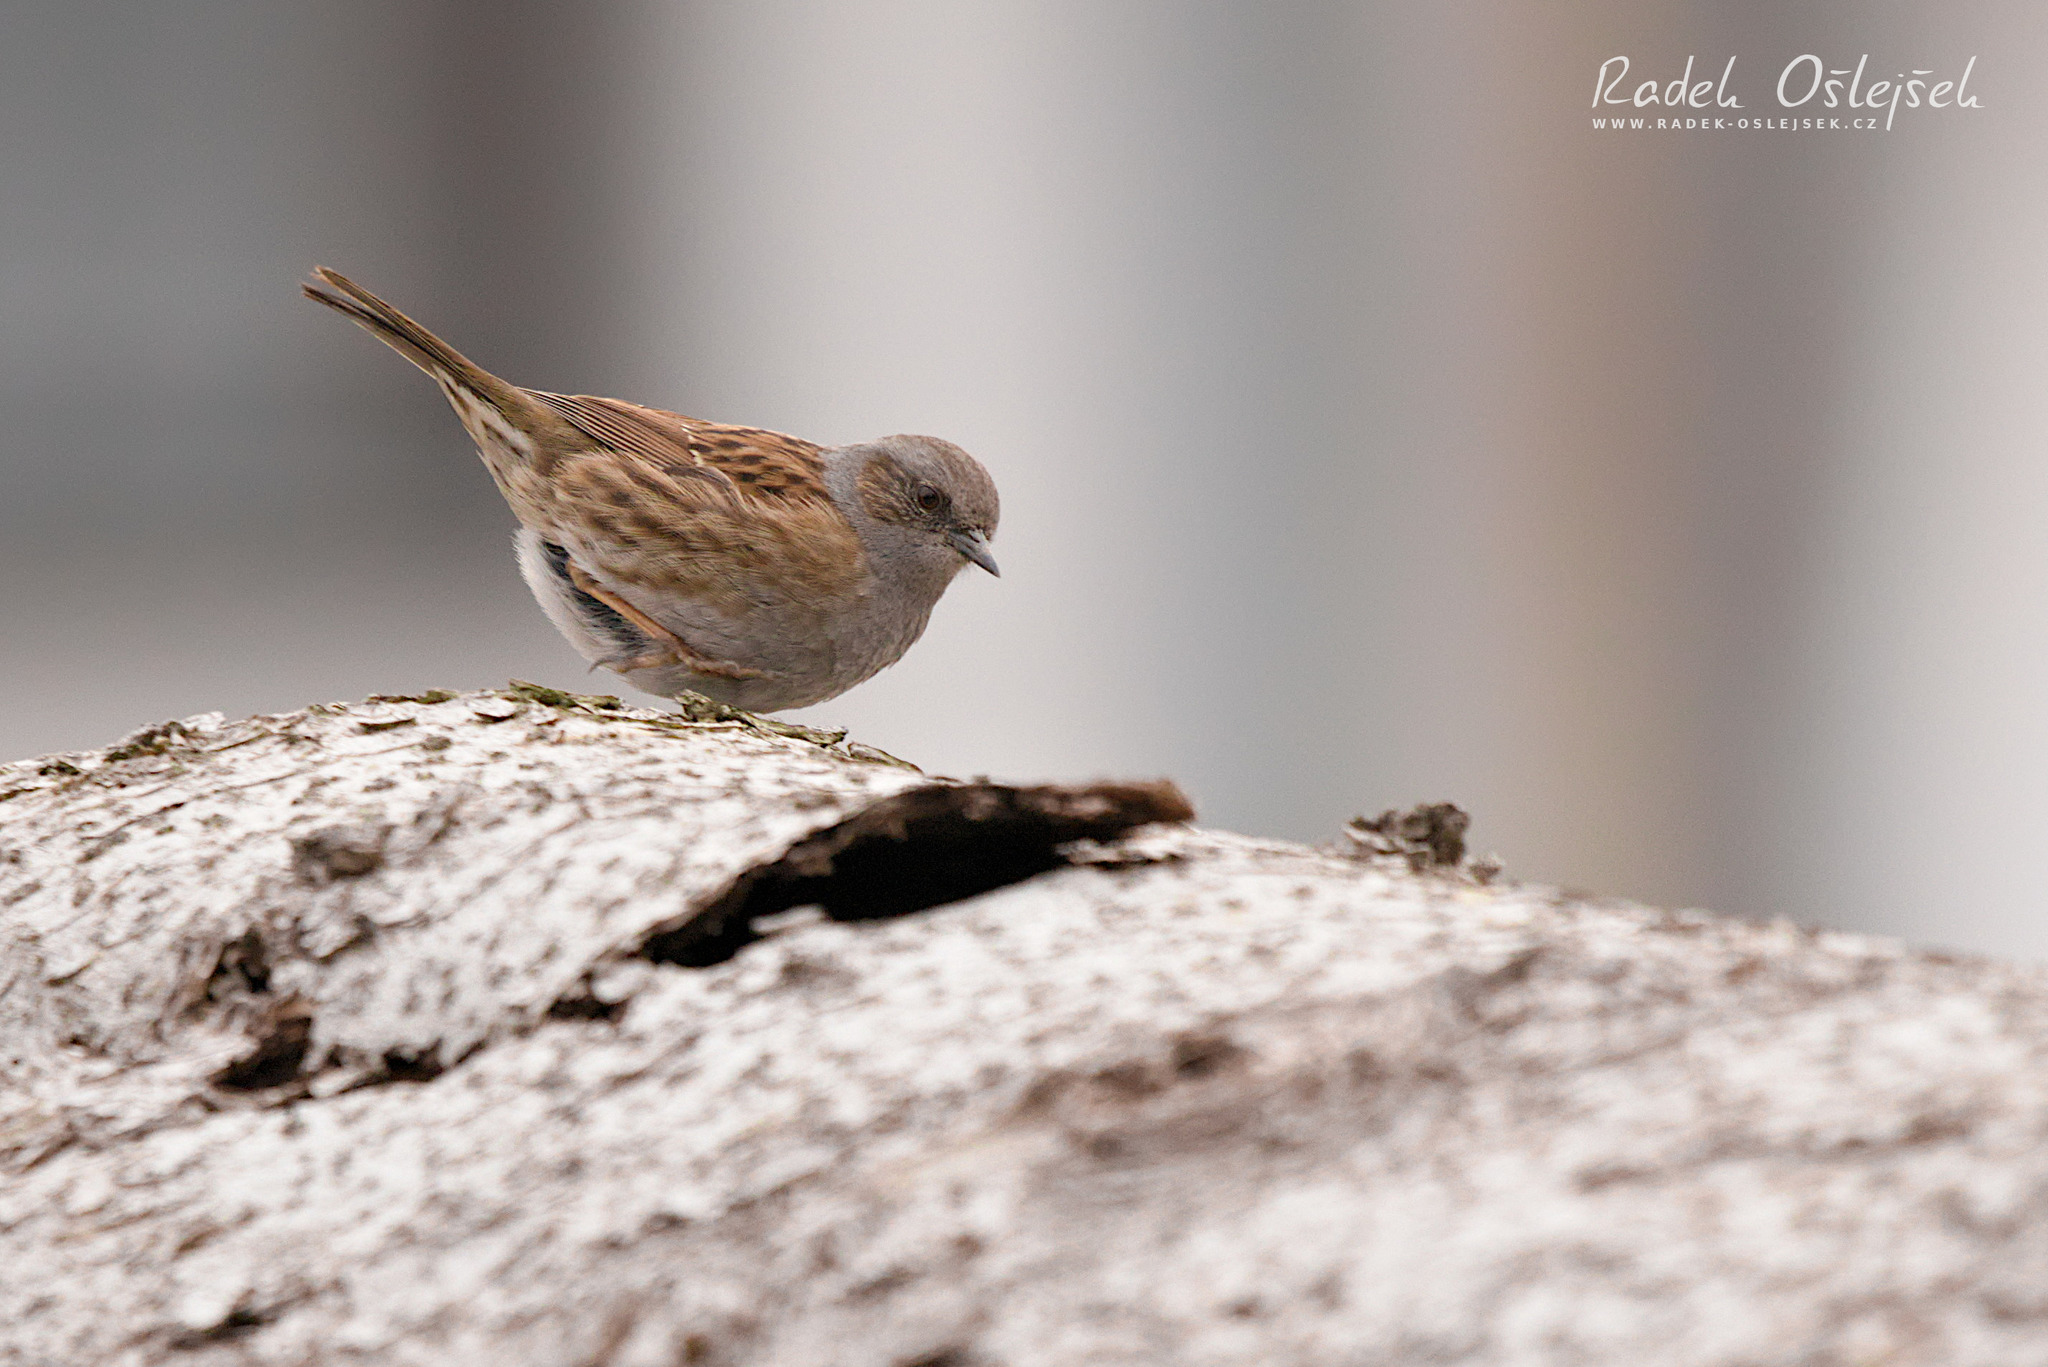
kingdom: Animalia
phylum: Chordata
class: Aves
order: Passeriformes
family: Prunellidae
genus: Prunella
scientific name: Prunella modularis
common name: Dunnock
